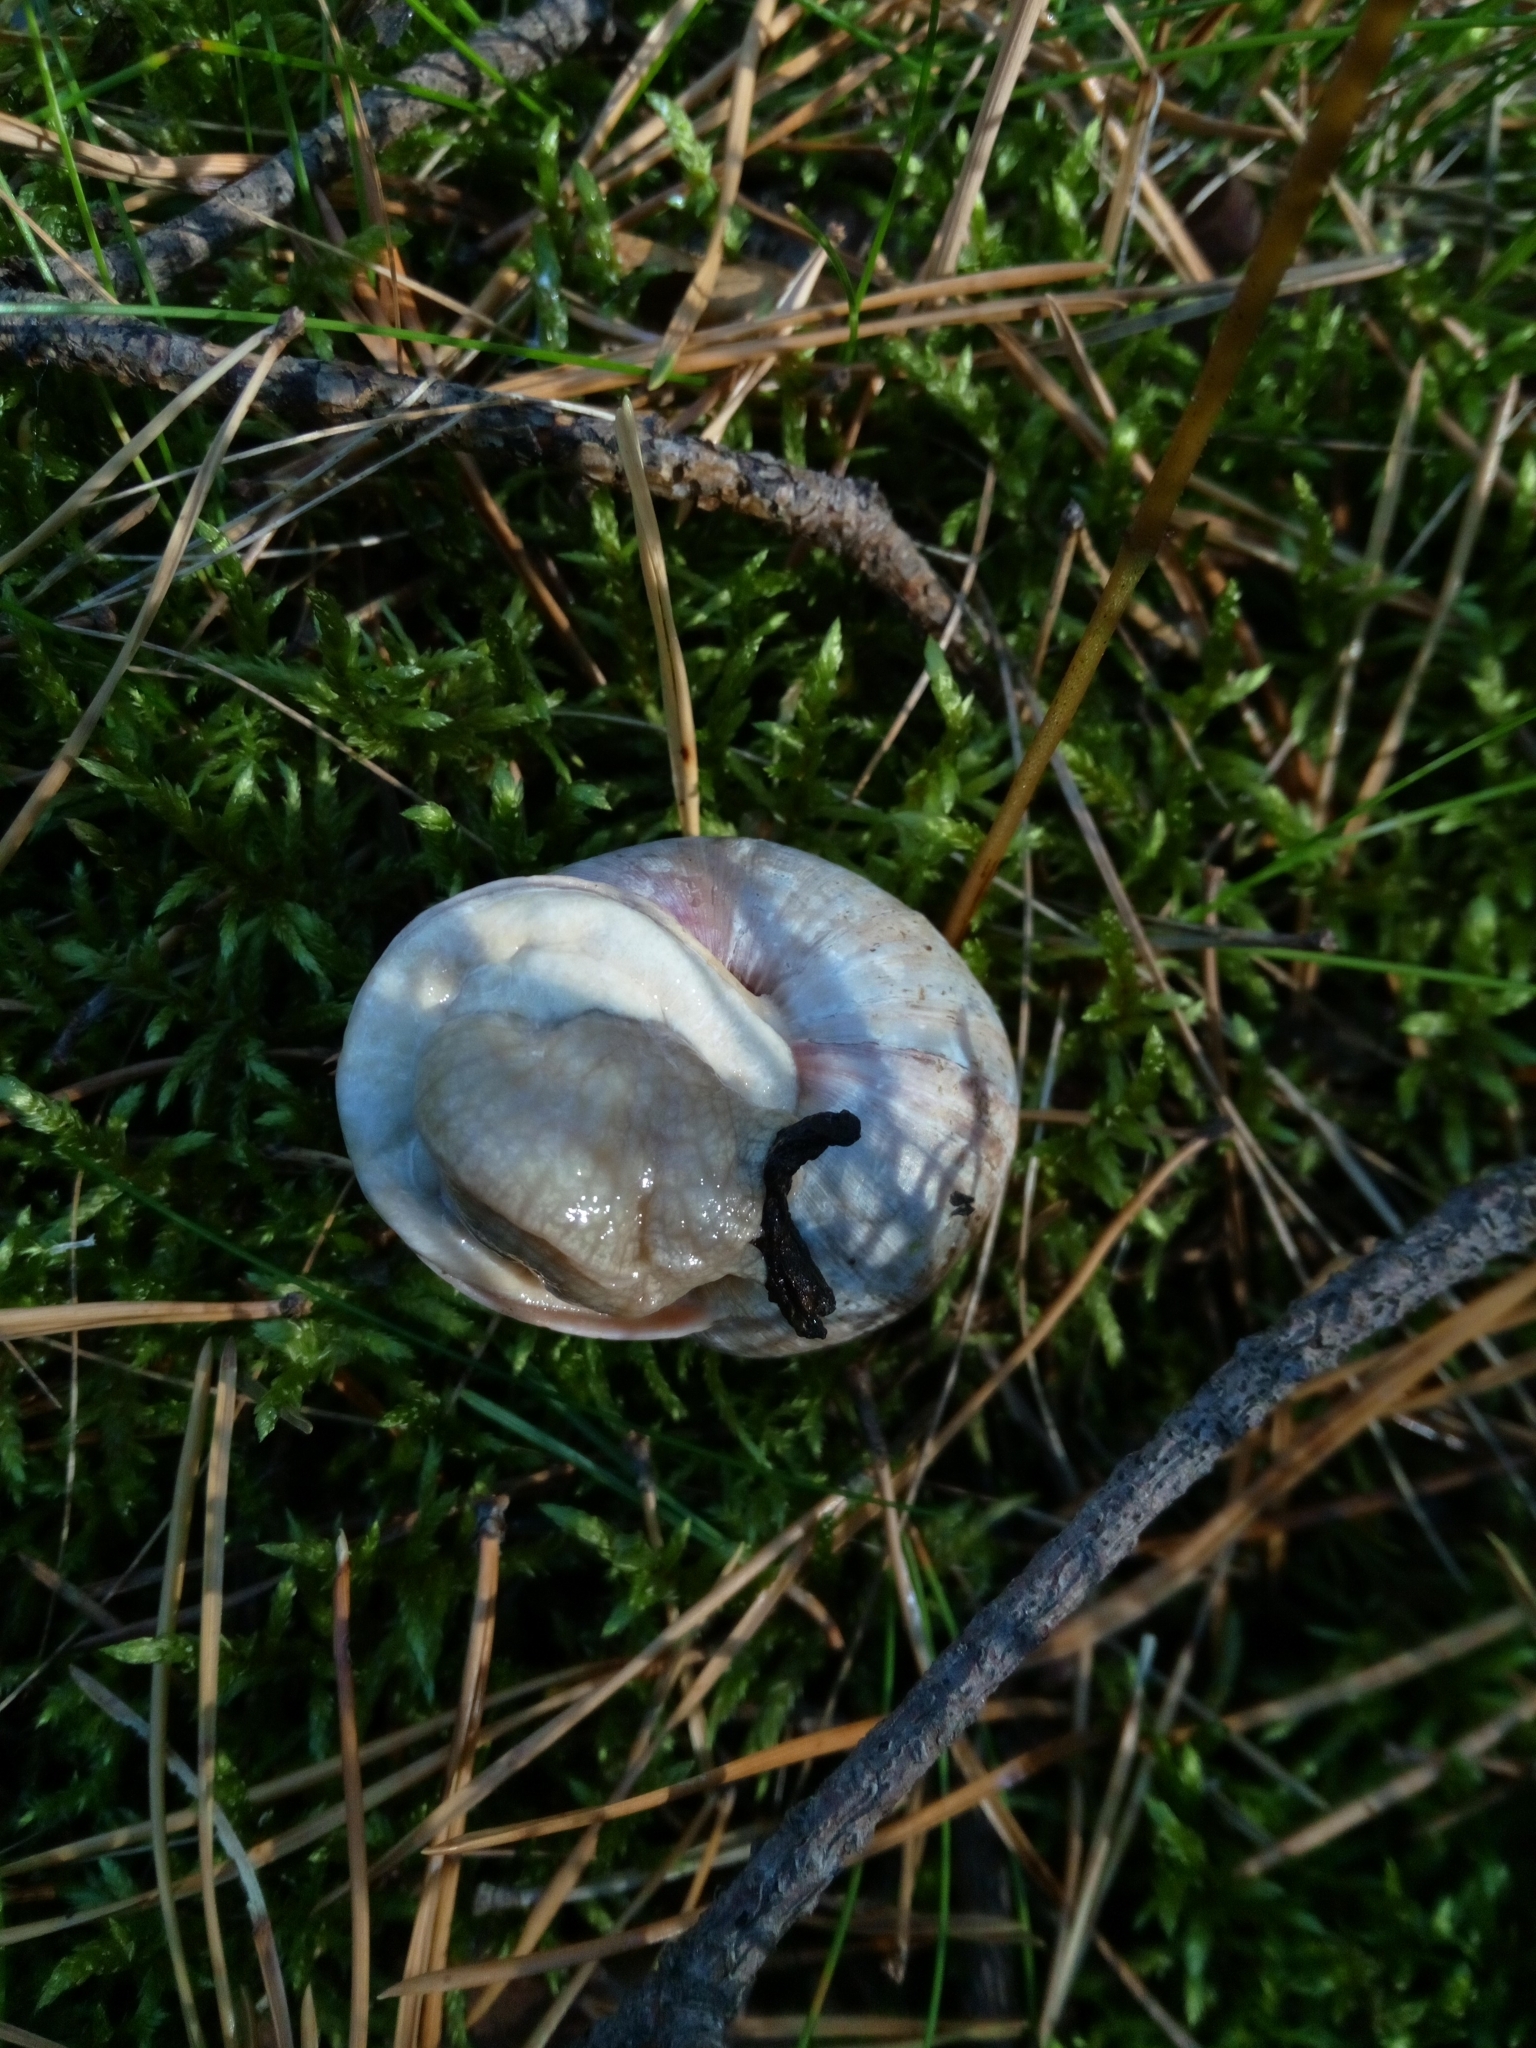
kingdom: Animalia
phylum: Mollusca
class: Gastropoda
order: Stylommatophora
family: Helicidae
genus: Helix
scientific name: Helix pomatia
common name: Roman snail
